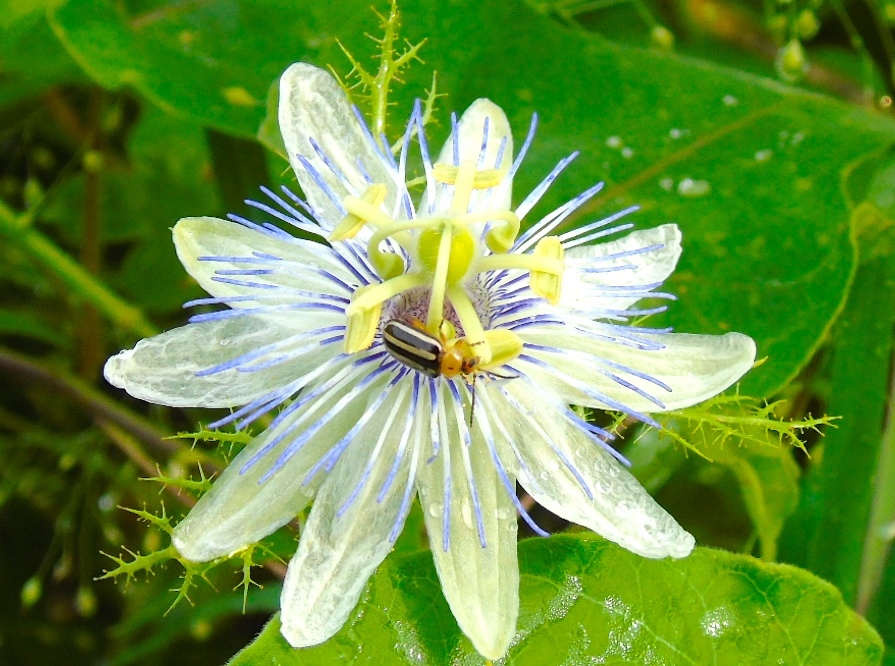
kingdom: Plantae
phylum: Tracheophyta
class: Magnoliopsida
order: Malpighiales
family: Passifloraceae
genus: Passiflora
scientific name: Passiflora foetida
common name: Fetid passionflower
